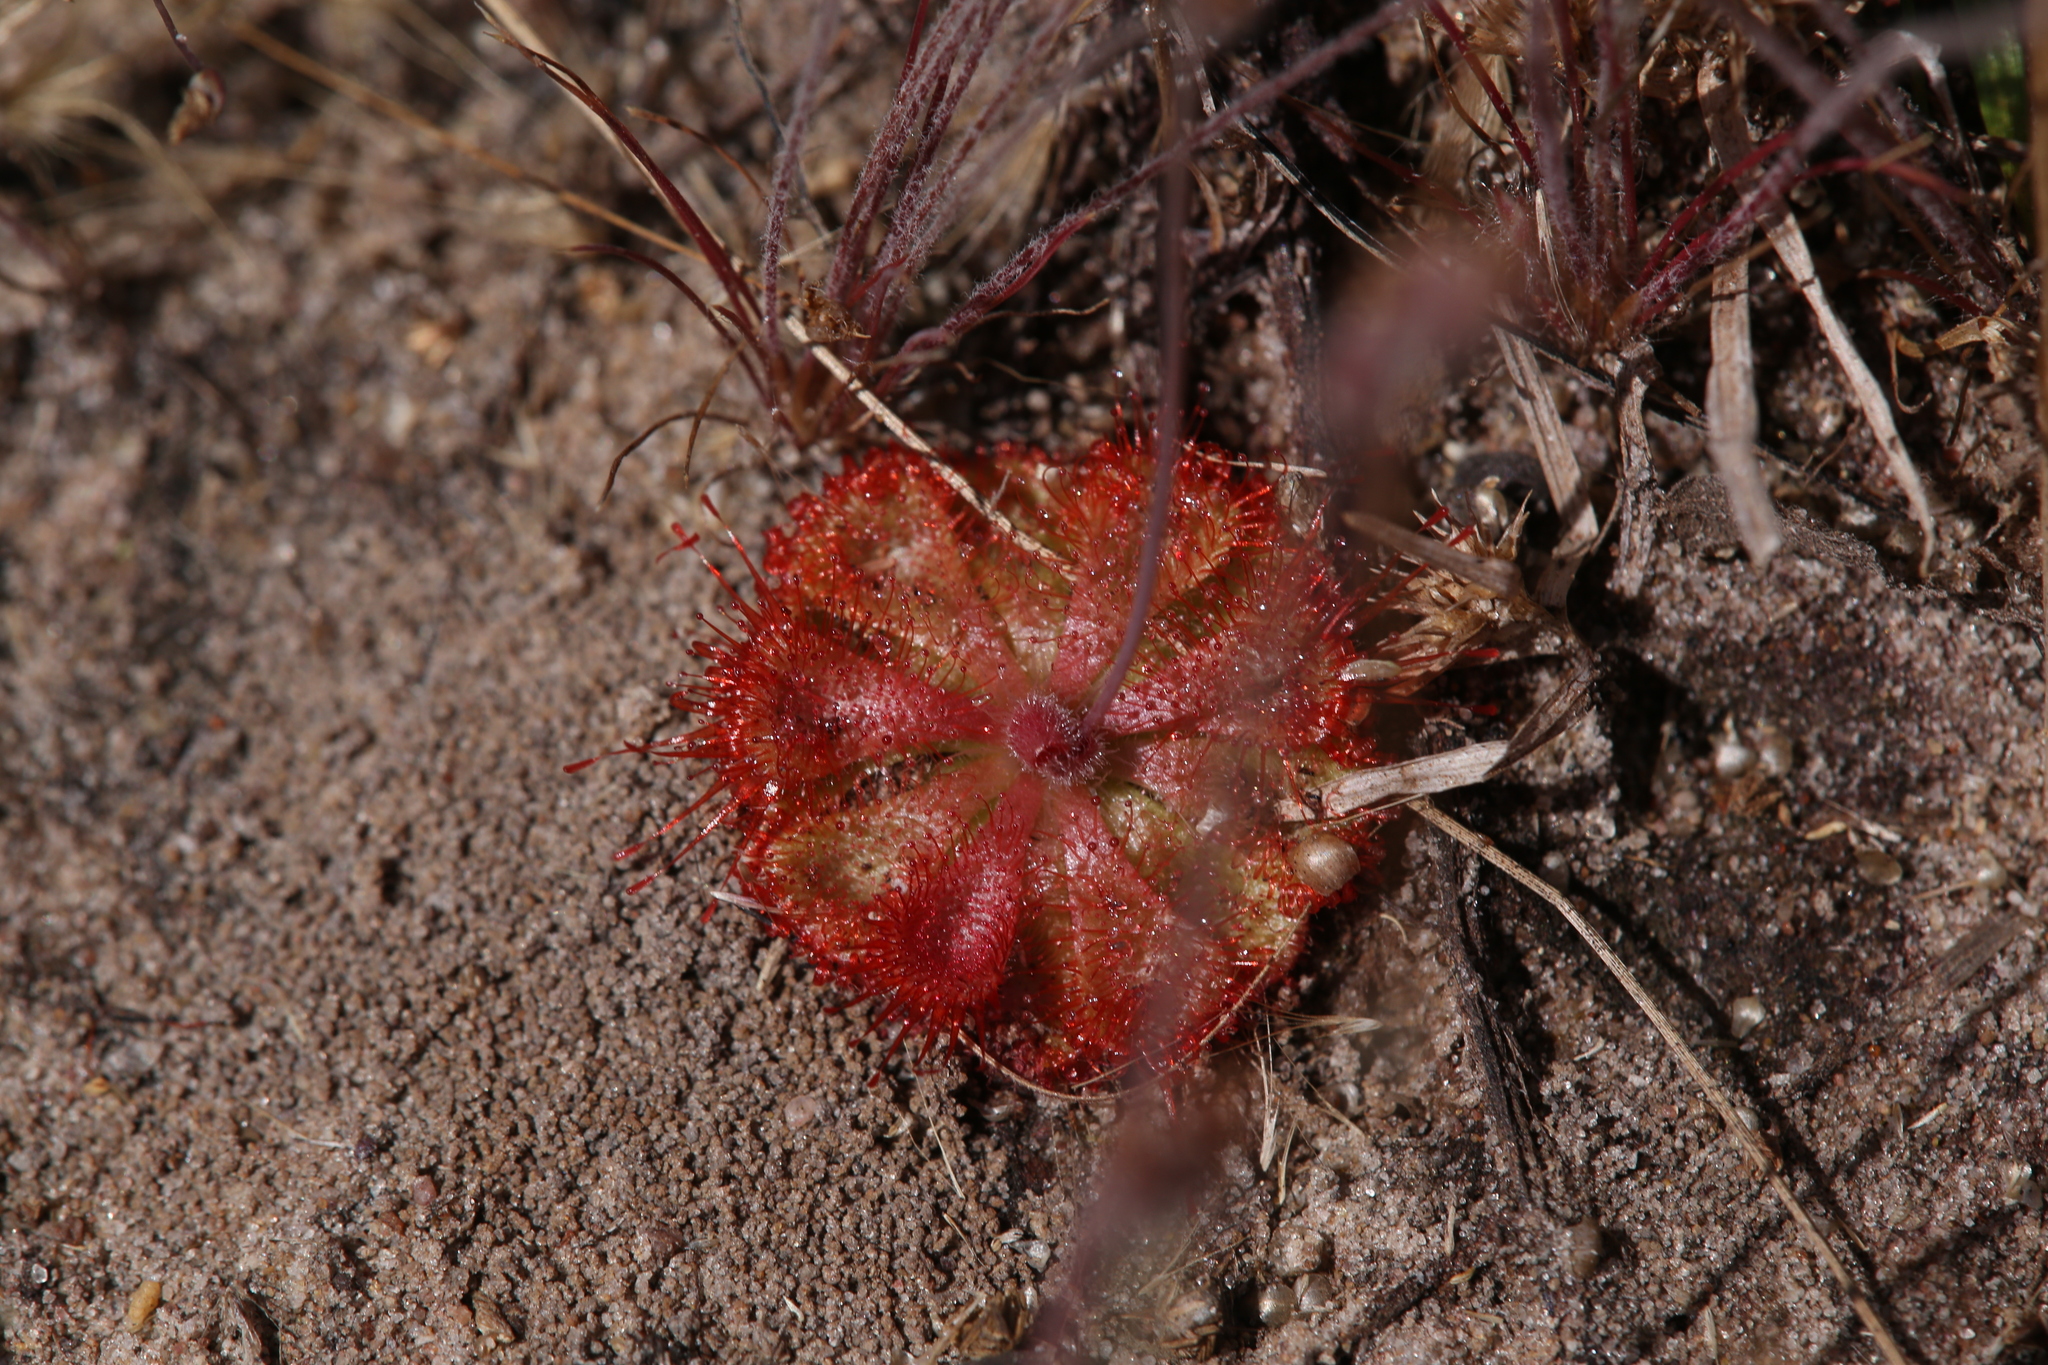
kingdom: Plantae
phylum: Tracheophyta
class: Magnoliopsida
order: Caryophyllales
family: Droseraceae
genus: Drosera
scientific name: Drosera spatulata
